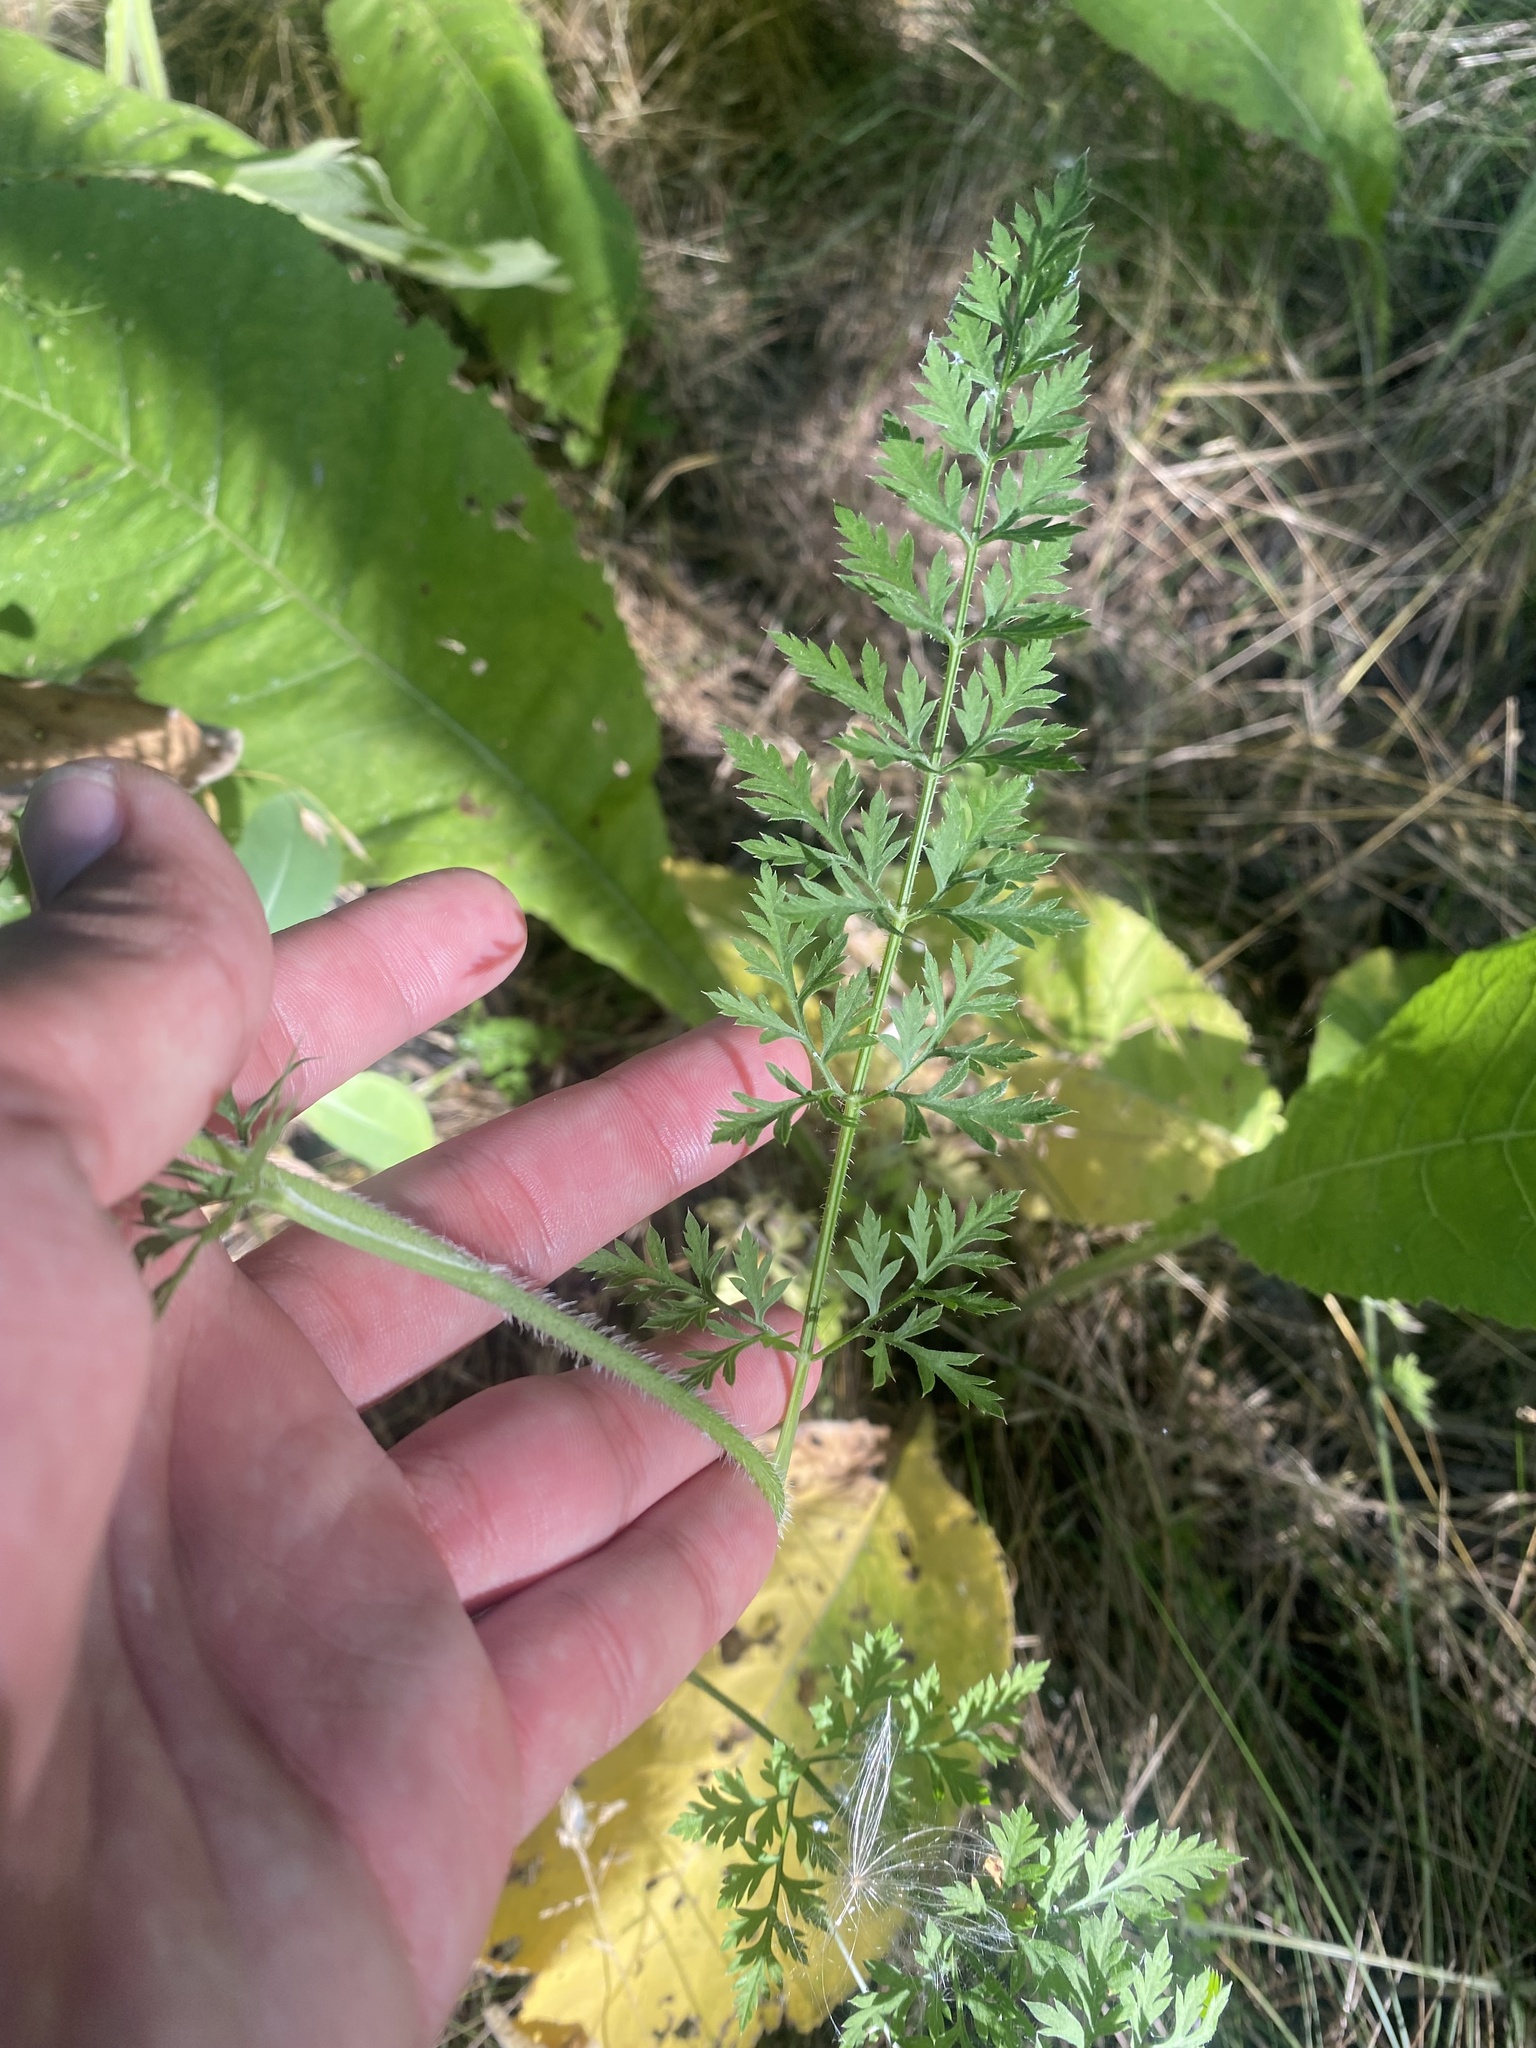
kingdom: Plantae
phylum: Tracheophyta
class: Magnoliopsida
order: Apiales
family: Apiaceae
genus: Daucus
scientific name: Daucus carota
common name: Wild carrot
